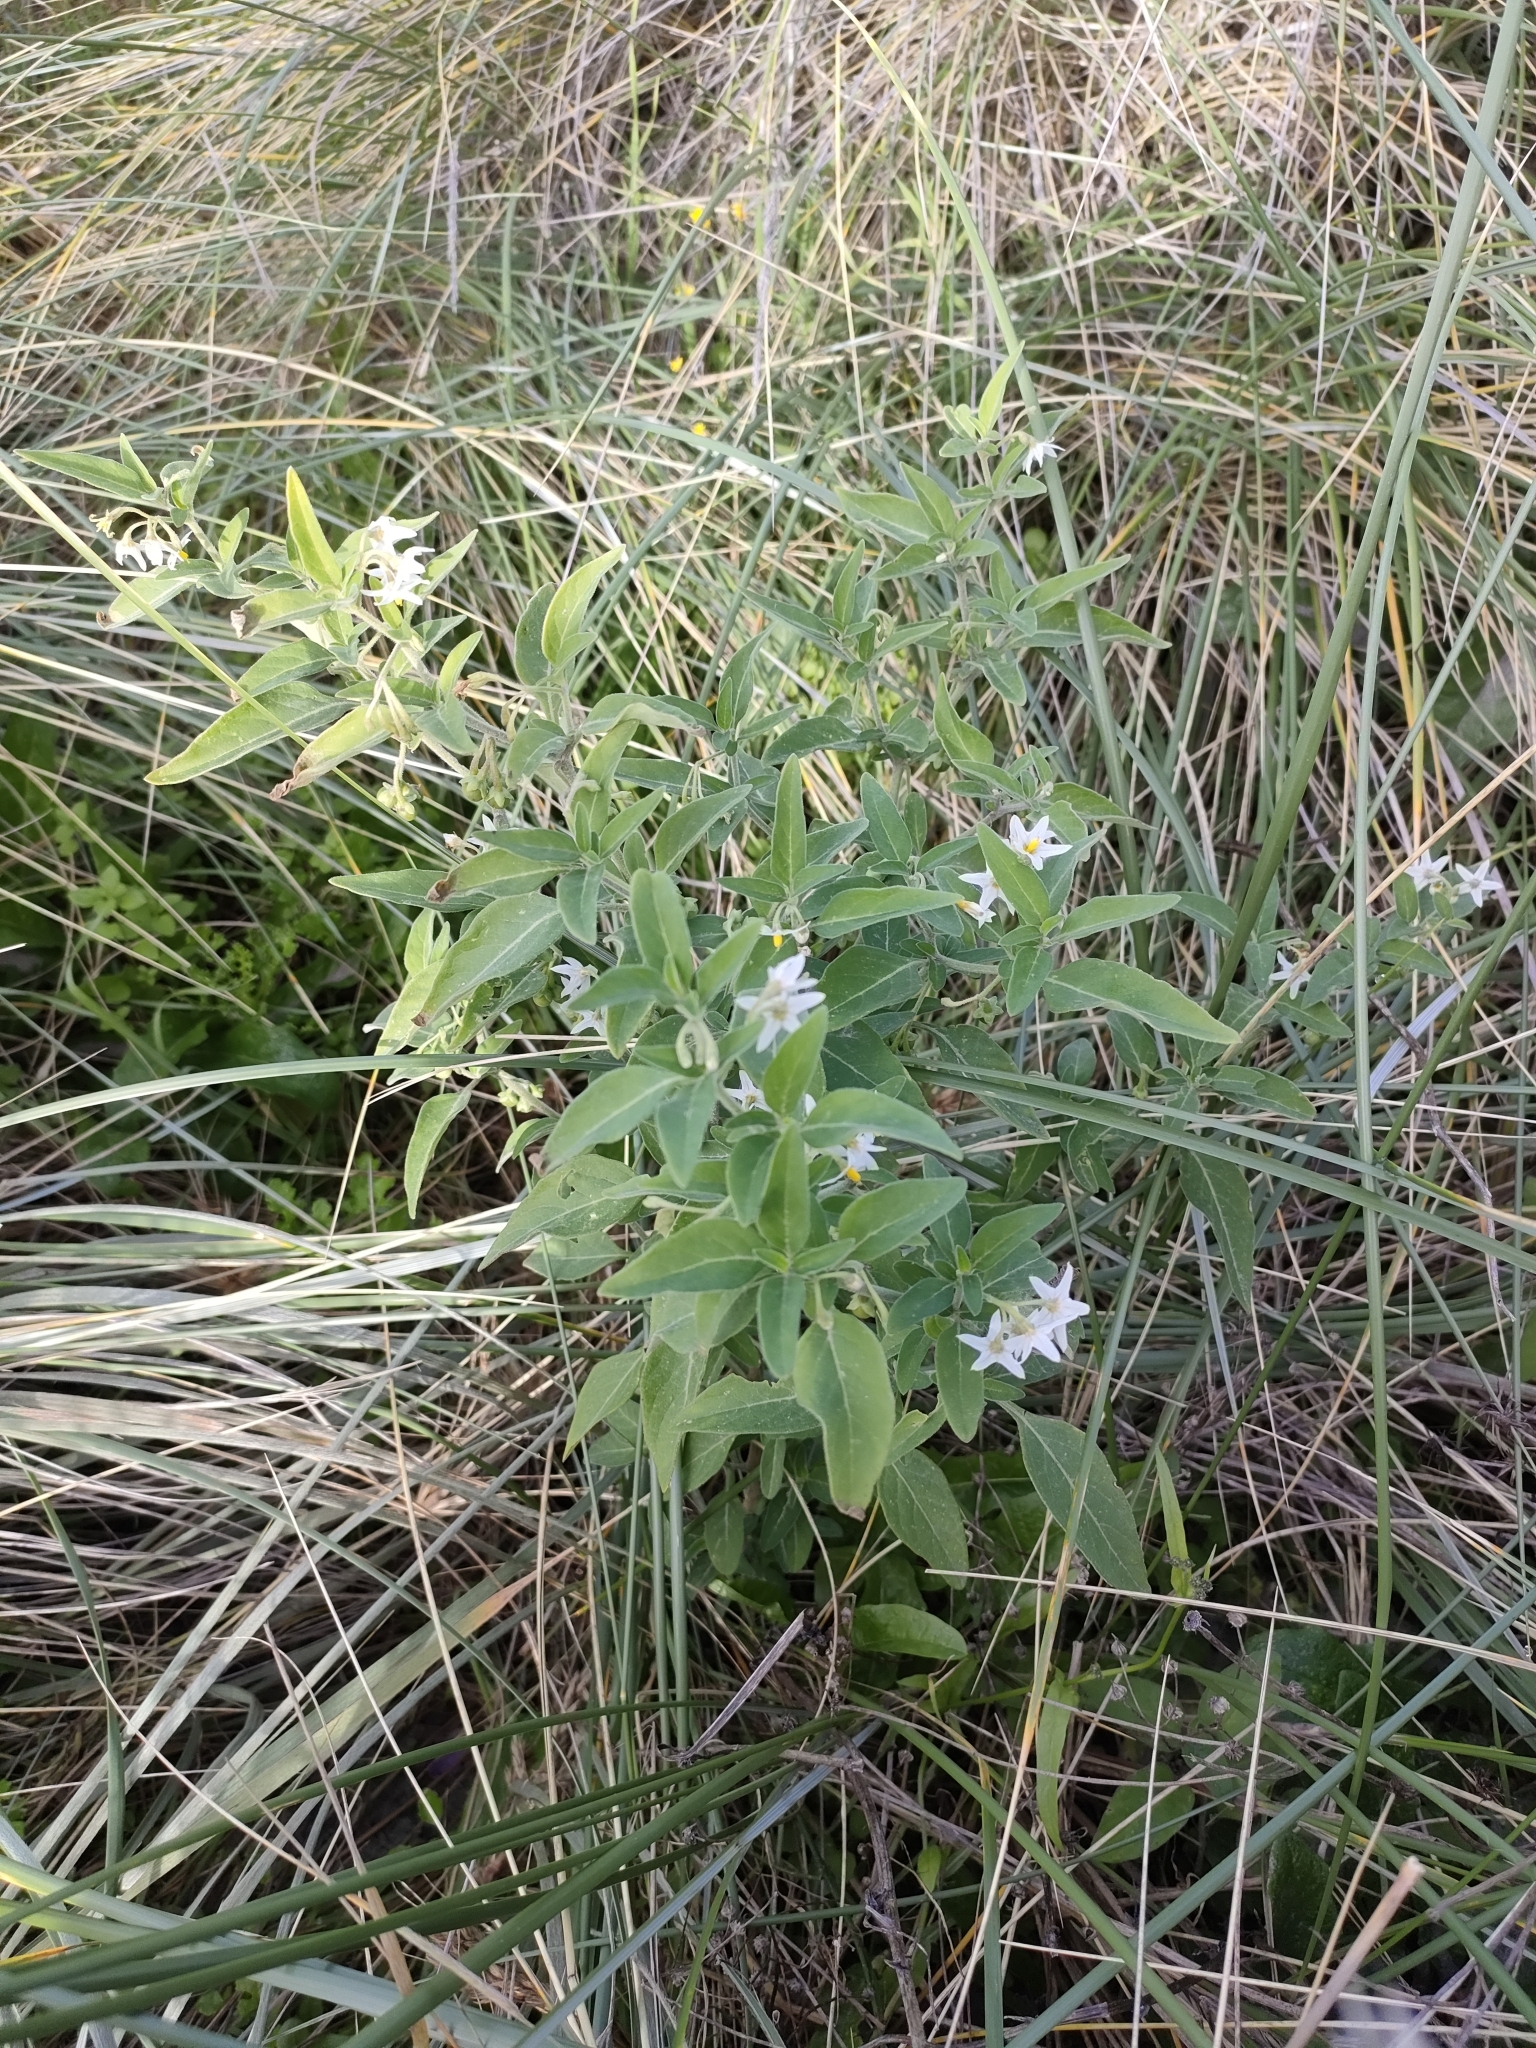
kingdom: Plantae
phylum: Tracheophyta
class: Magnoliopsida
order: Solanales
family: Solanaceae
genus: Solanum
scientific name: Solanum chenopodioides
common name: Tall nightshade
